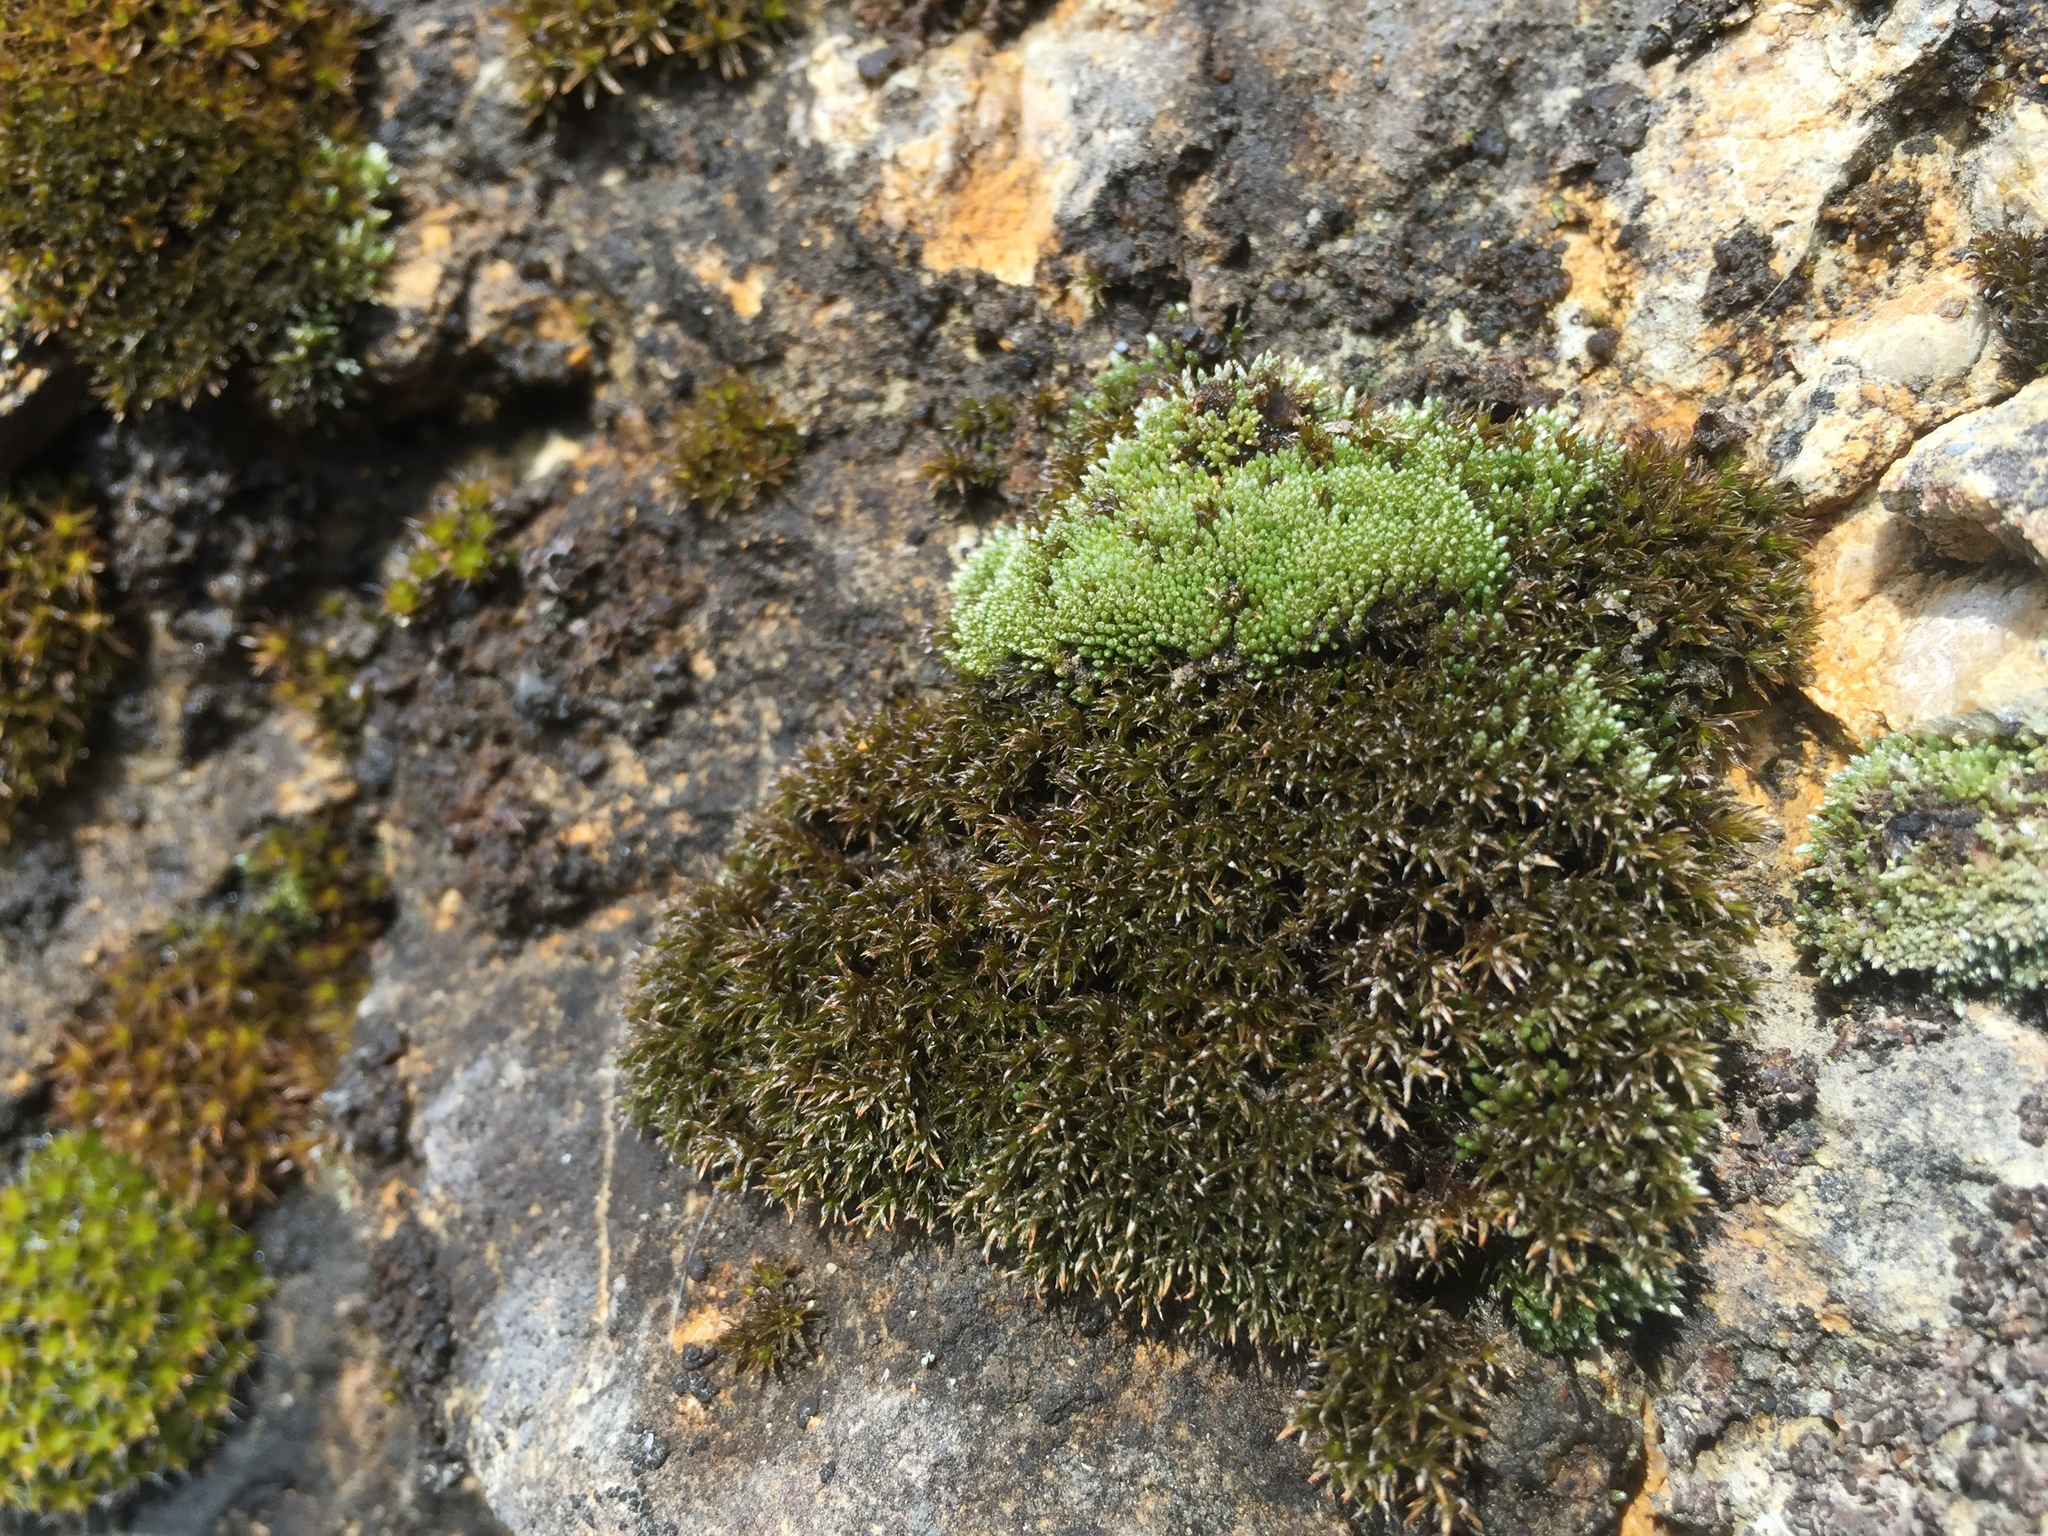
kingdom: Plantae
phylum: Bryophyta
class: Bryopsida
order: Bryales
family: Bryaceae
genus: Bryum
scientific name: Bryum argenteum
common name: Silver-moss
